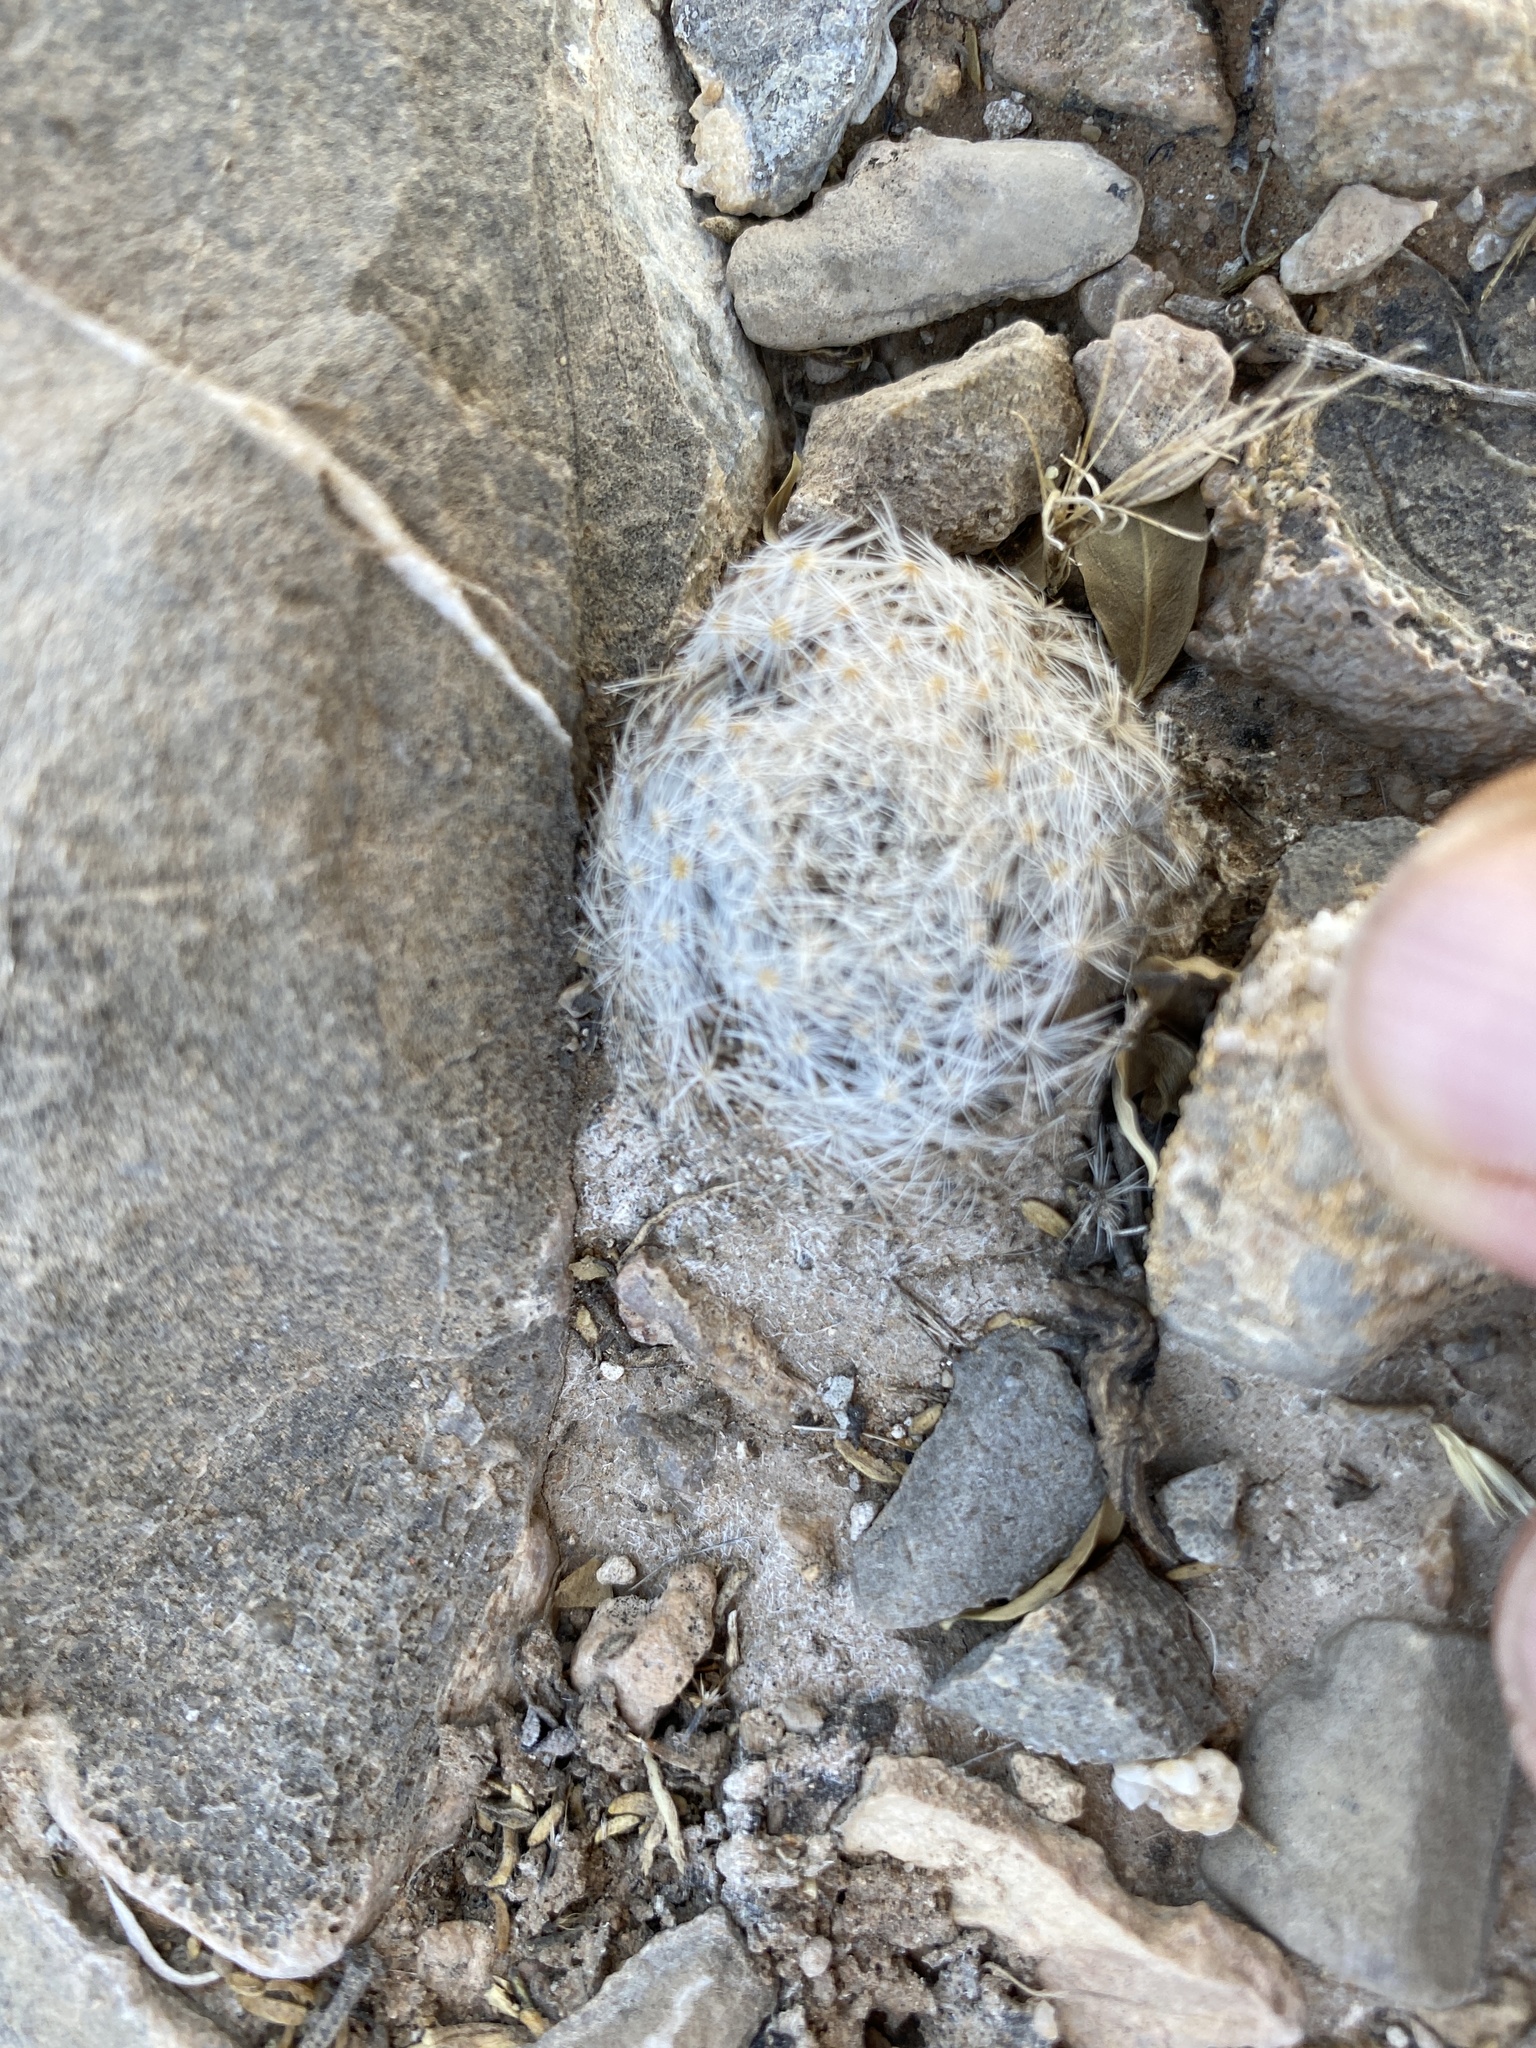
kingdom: Plantae
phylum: Tracheophyta
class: Magnoliopsida
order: Caryophyllales
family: Cactaceae
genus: Mammillaria
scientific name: Mammillaria lasiacantha
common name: Lace-spine nipple cactus
